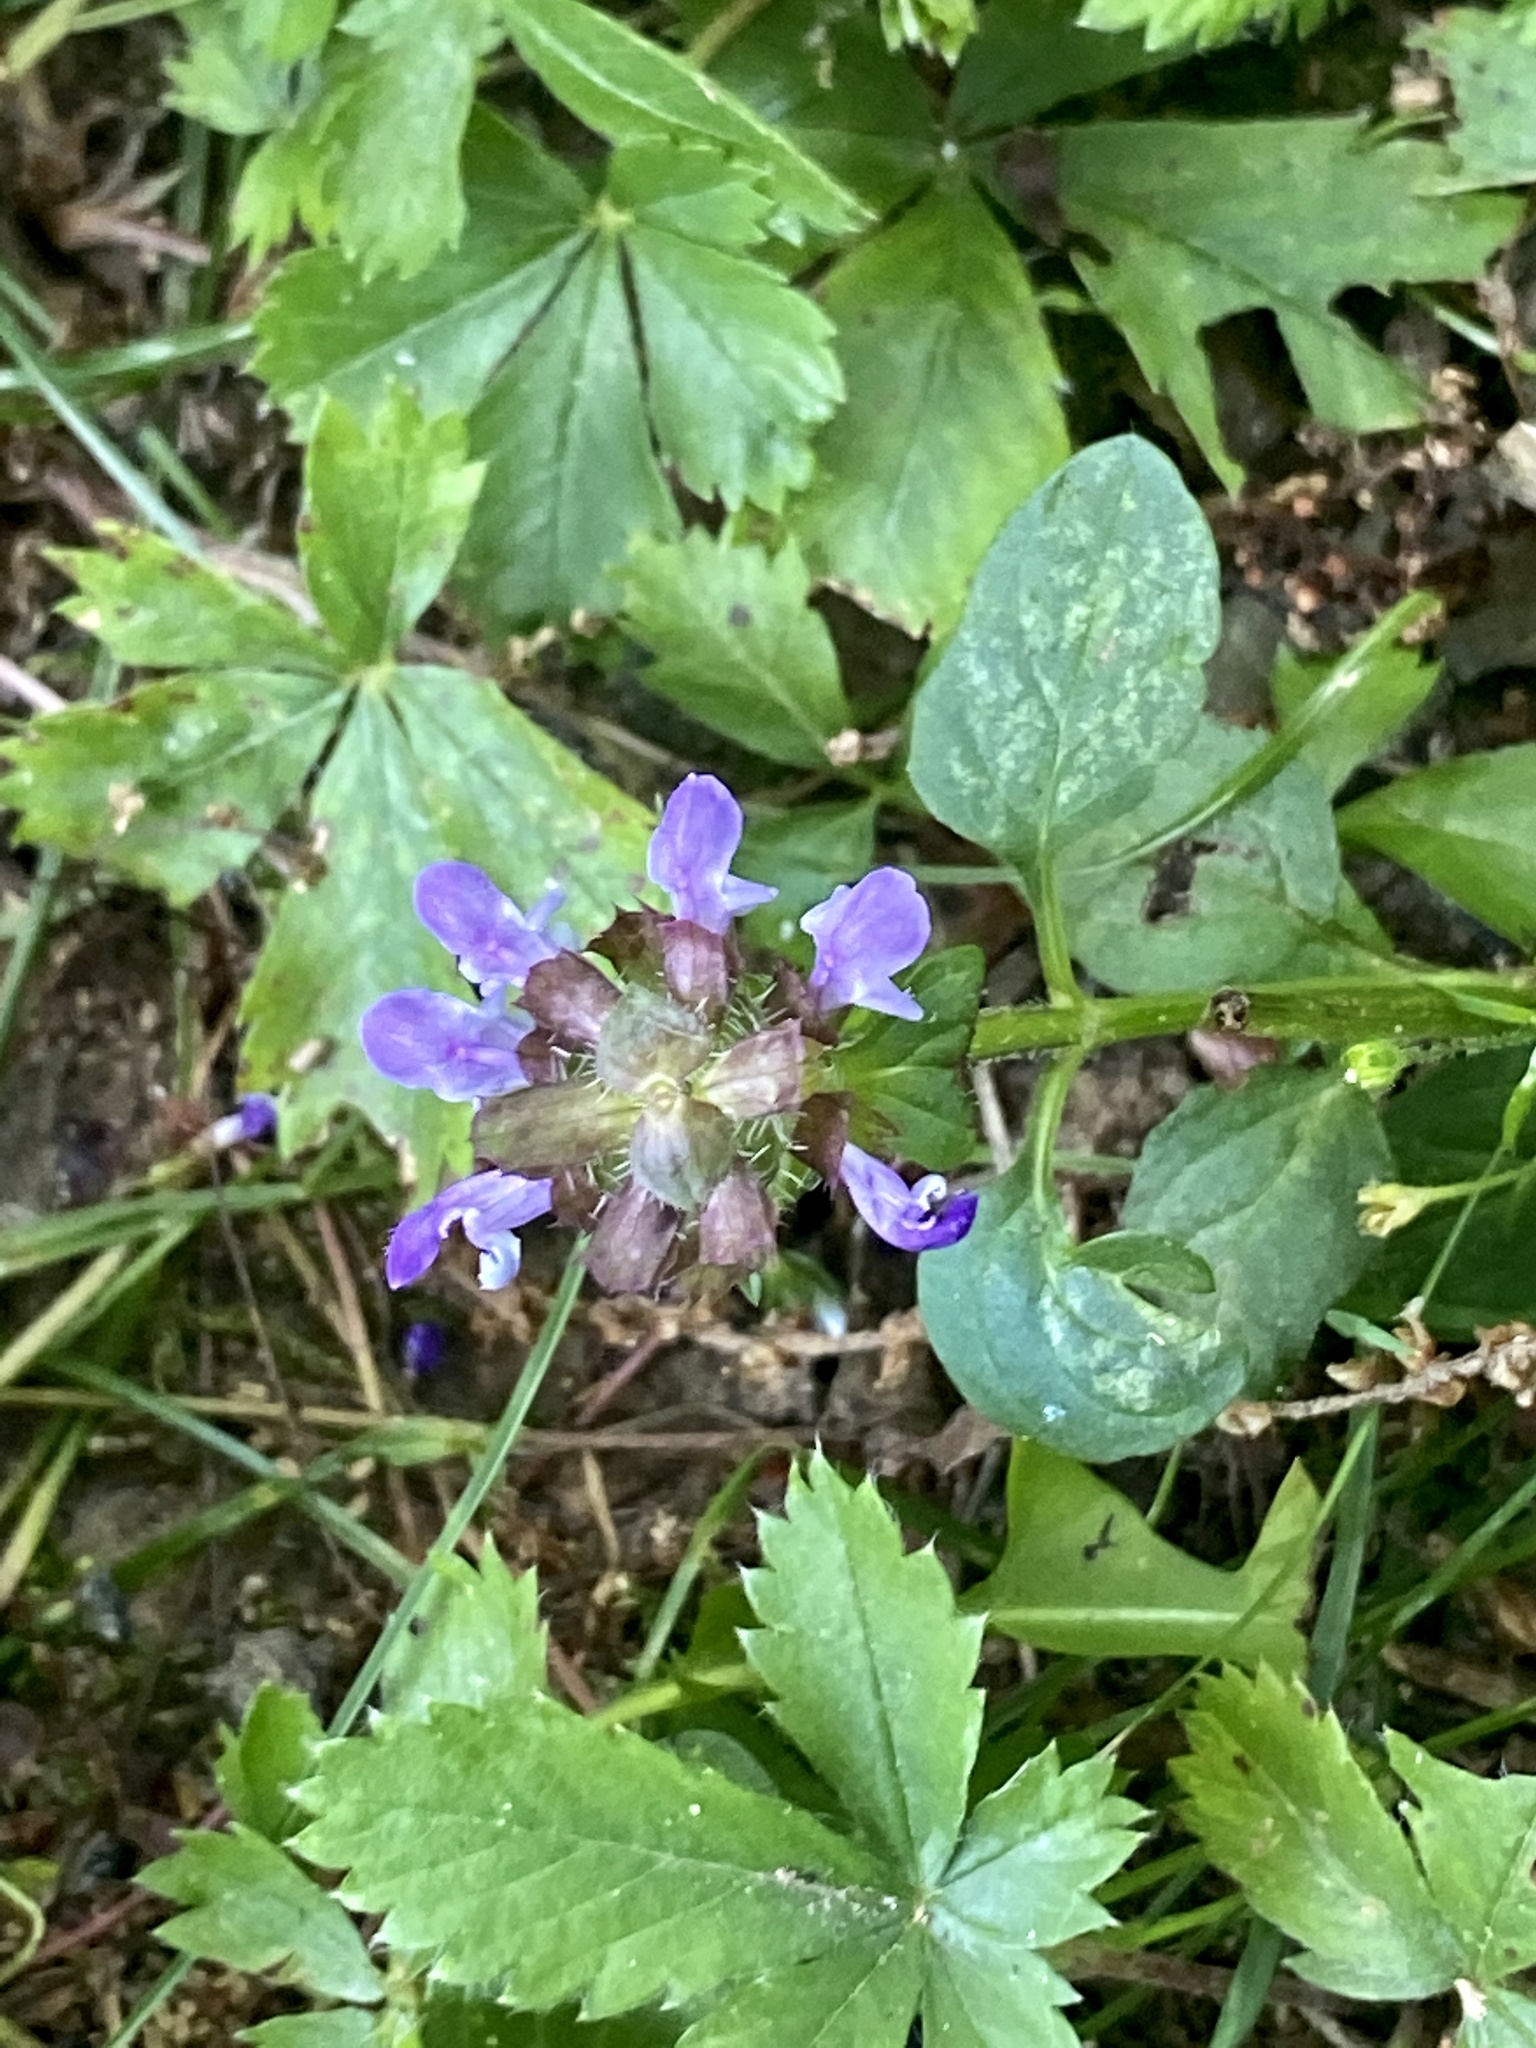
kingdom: Plantae
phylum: Tracheophyta
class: Magnoliopsida
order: Lamiales
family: Lamiaceae
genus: Prunella
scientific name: Prunella vulgaris
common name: Heal-all
